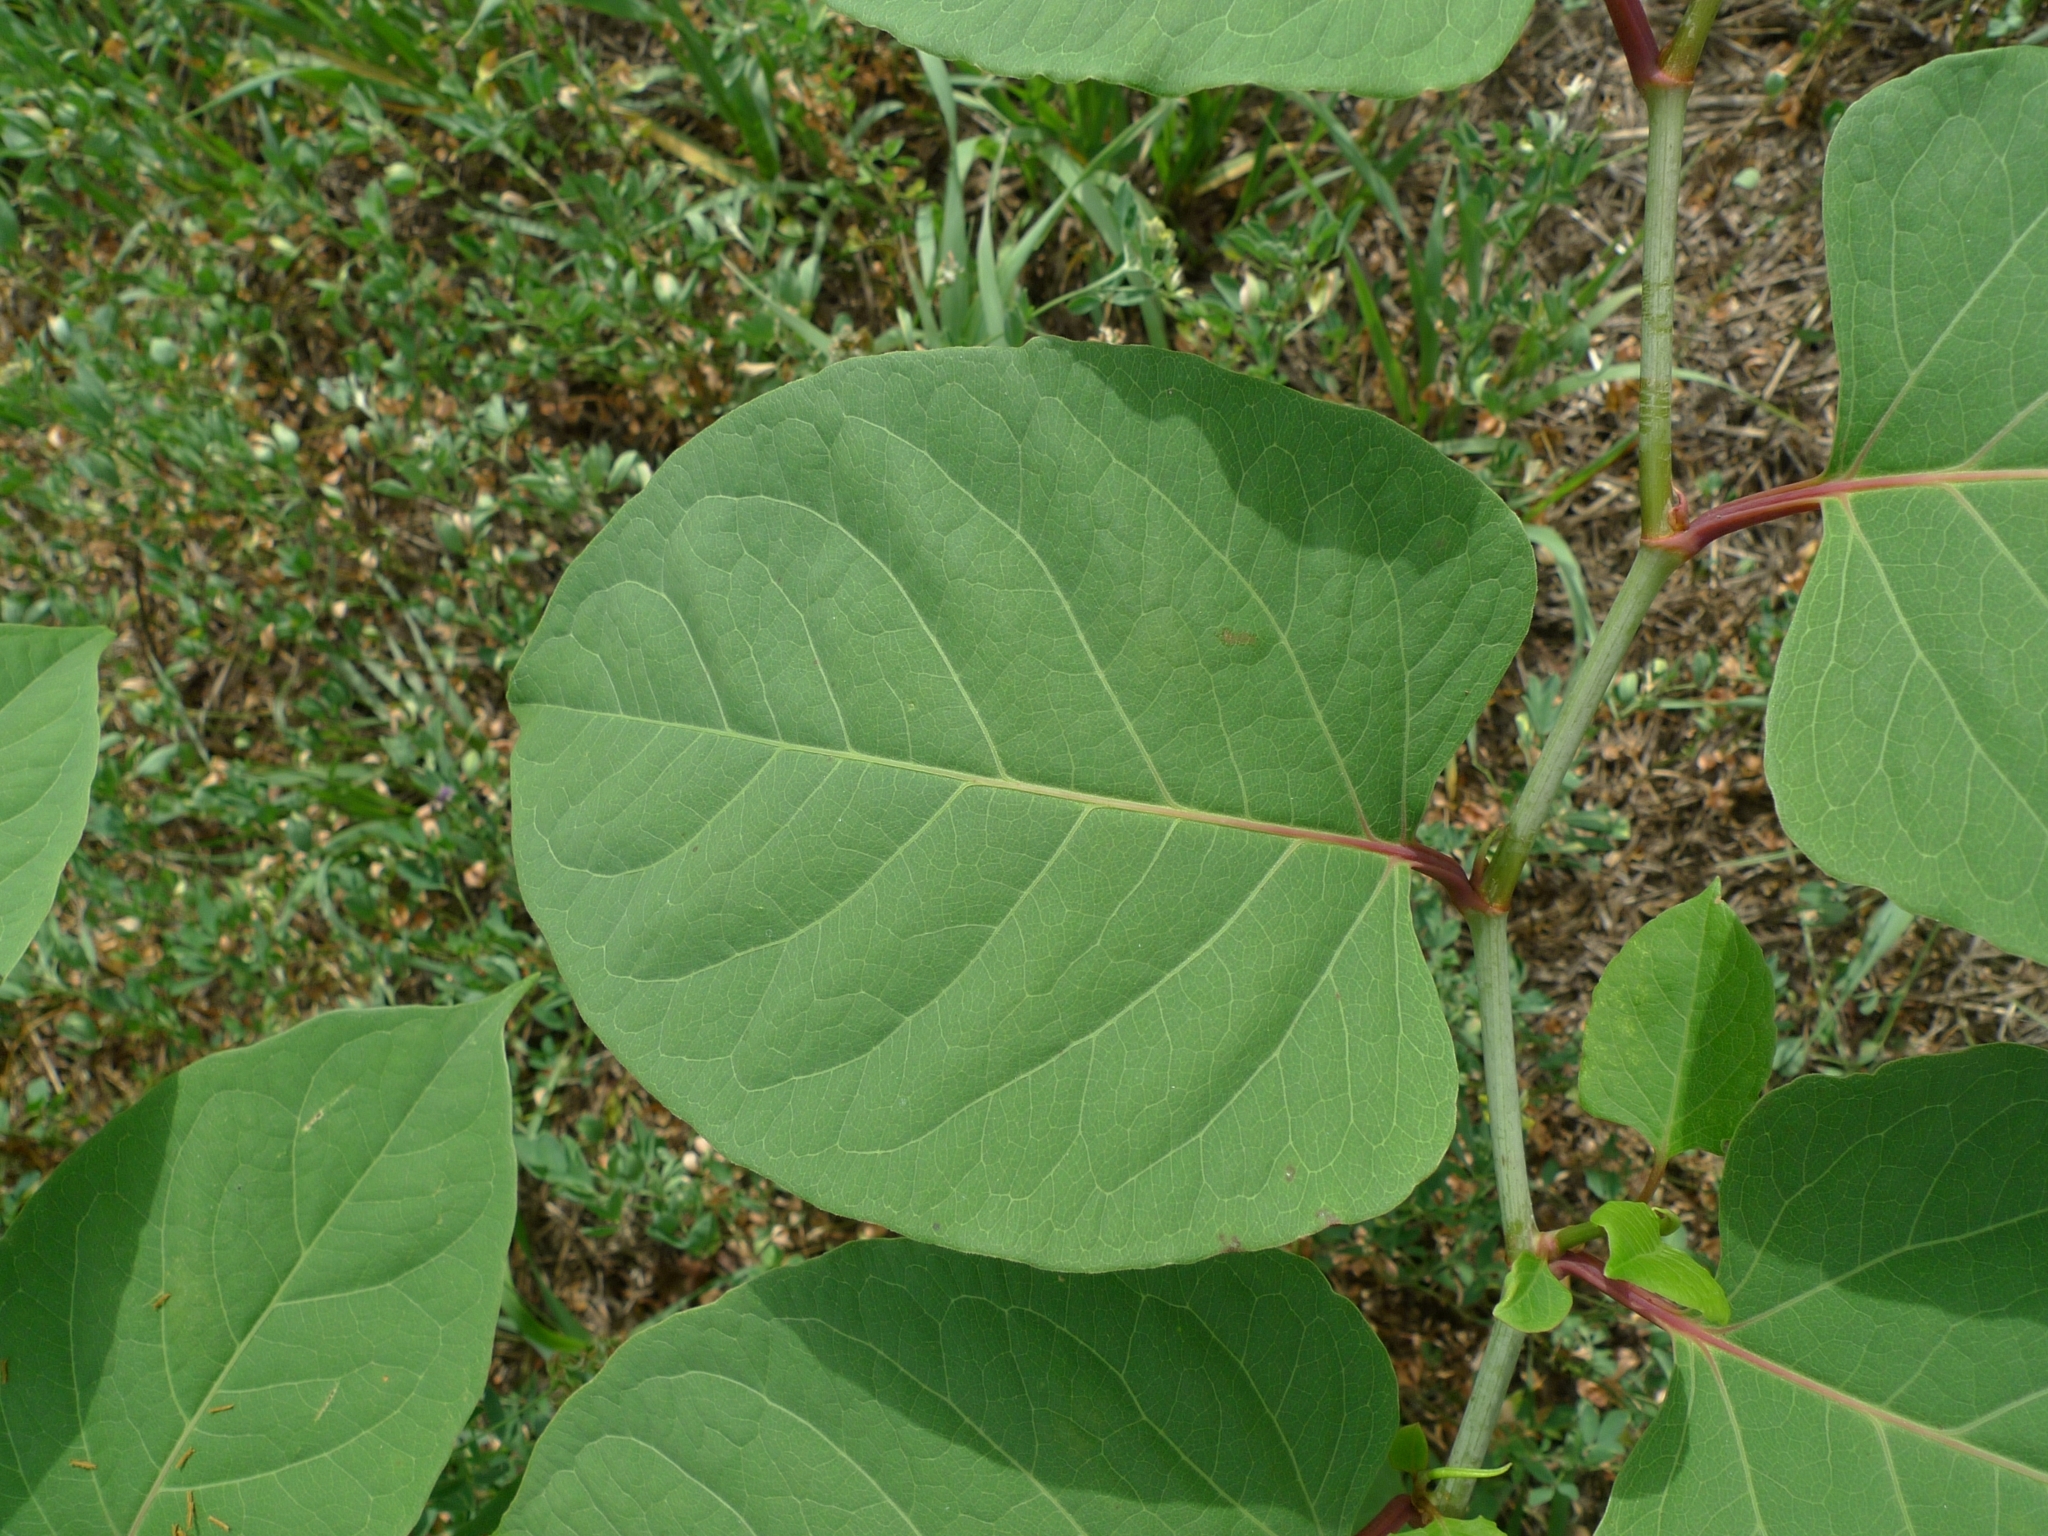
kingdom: Plantae
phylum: Tracheophyta
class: Magnoliopsida
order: Caryophyllales
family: Polygonaceae
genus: Reynoutria
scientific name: Reynoutria japonica
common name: Japanese knotweed
